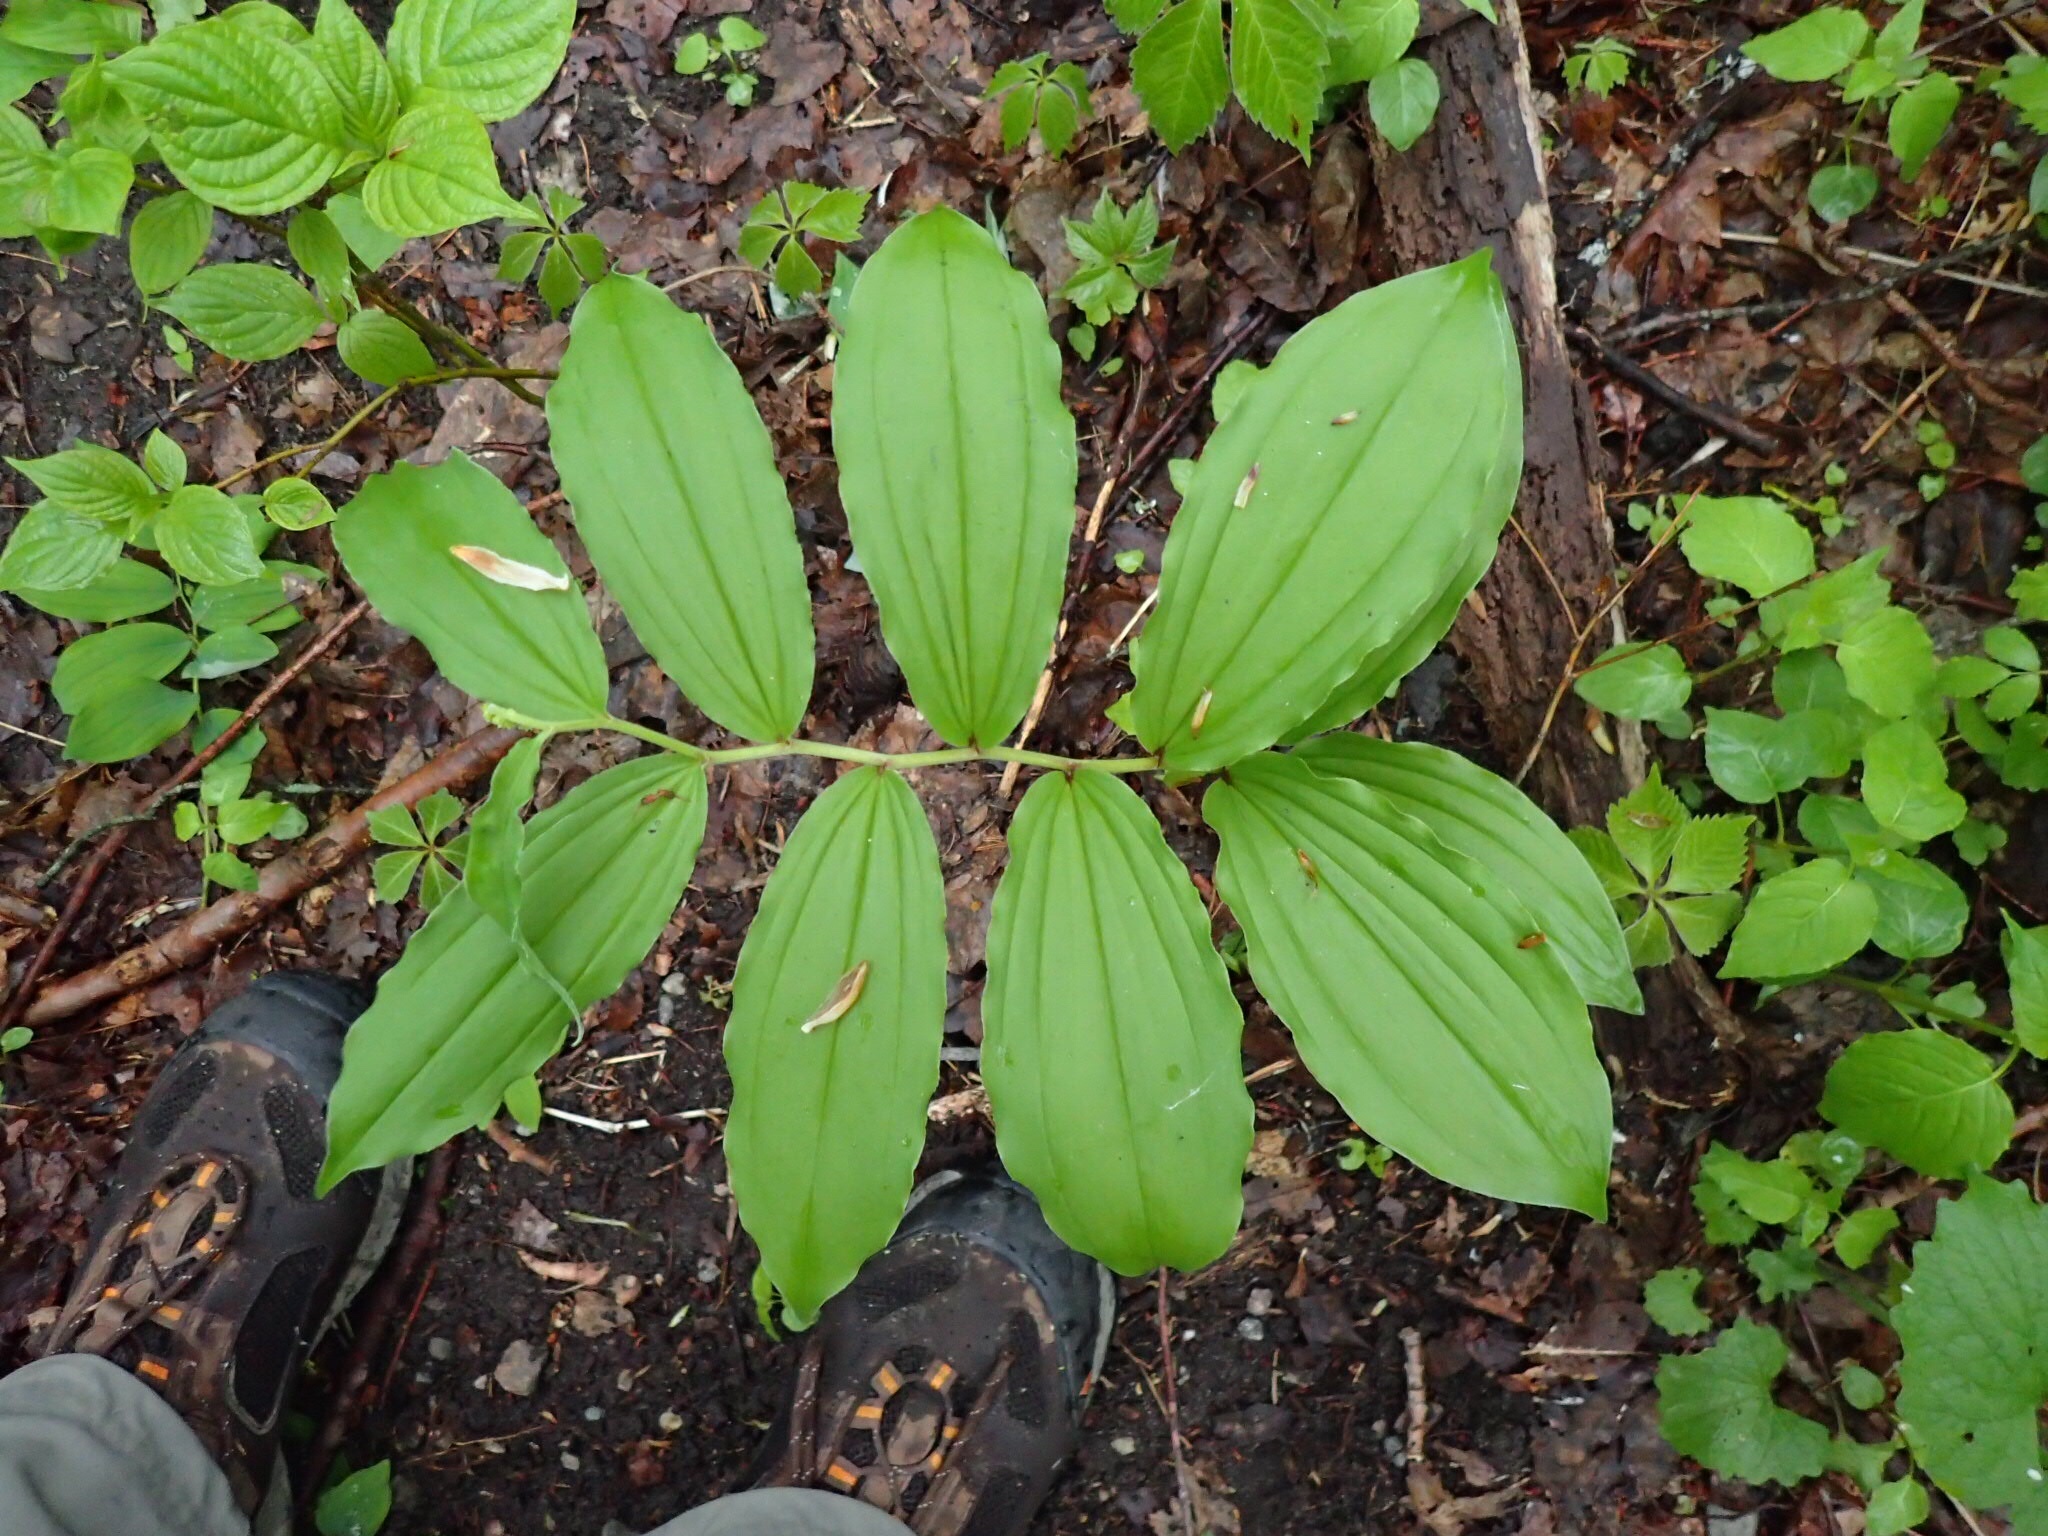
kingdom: Plantae
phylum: Tracheophyta
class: Liliopsida
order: Asparagales
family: Asparagaceae
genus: Maianthemum
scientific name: Maianthemum racemosum
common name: False spikenard
